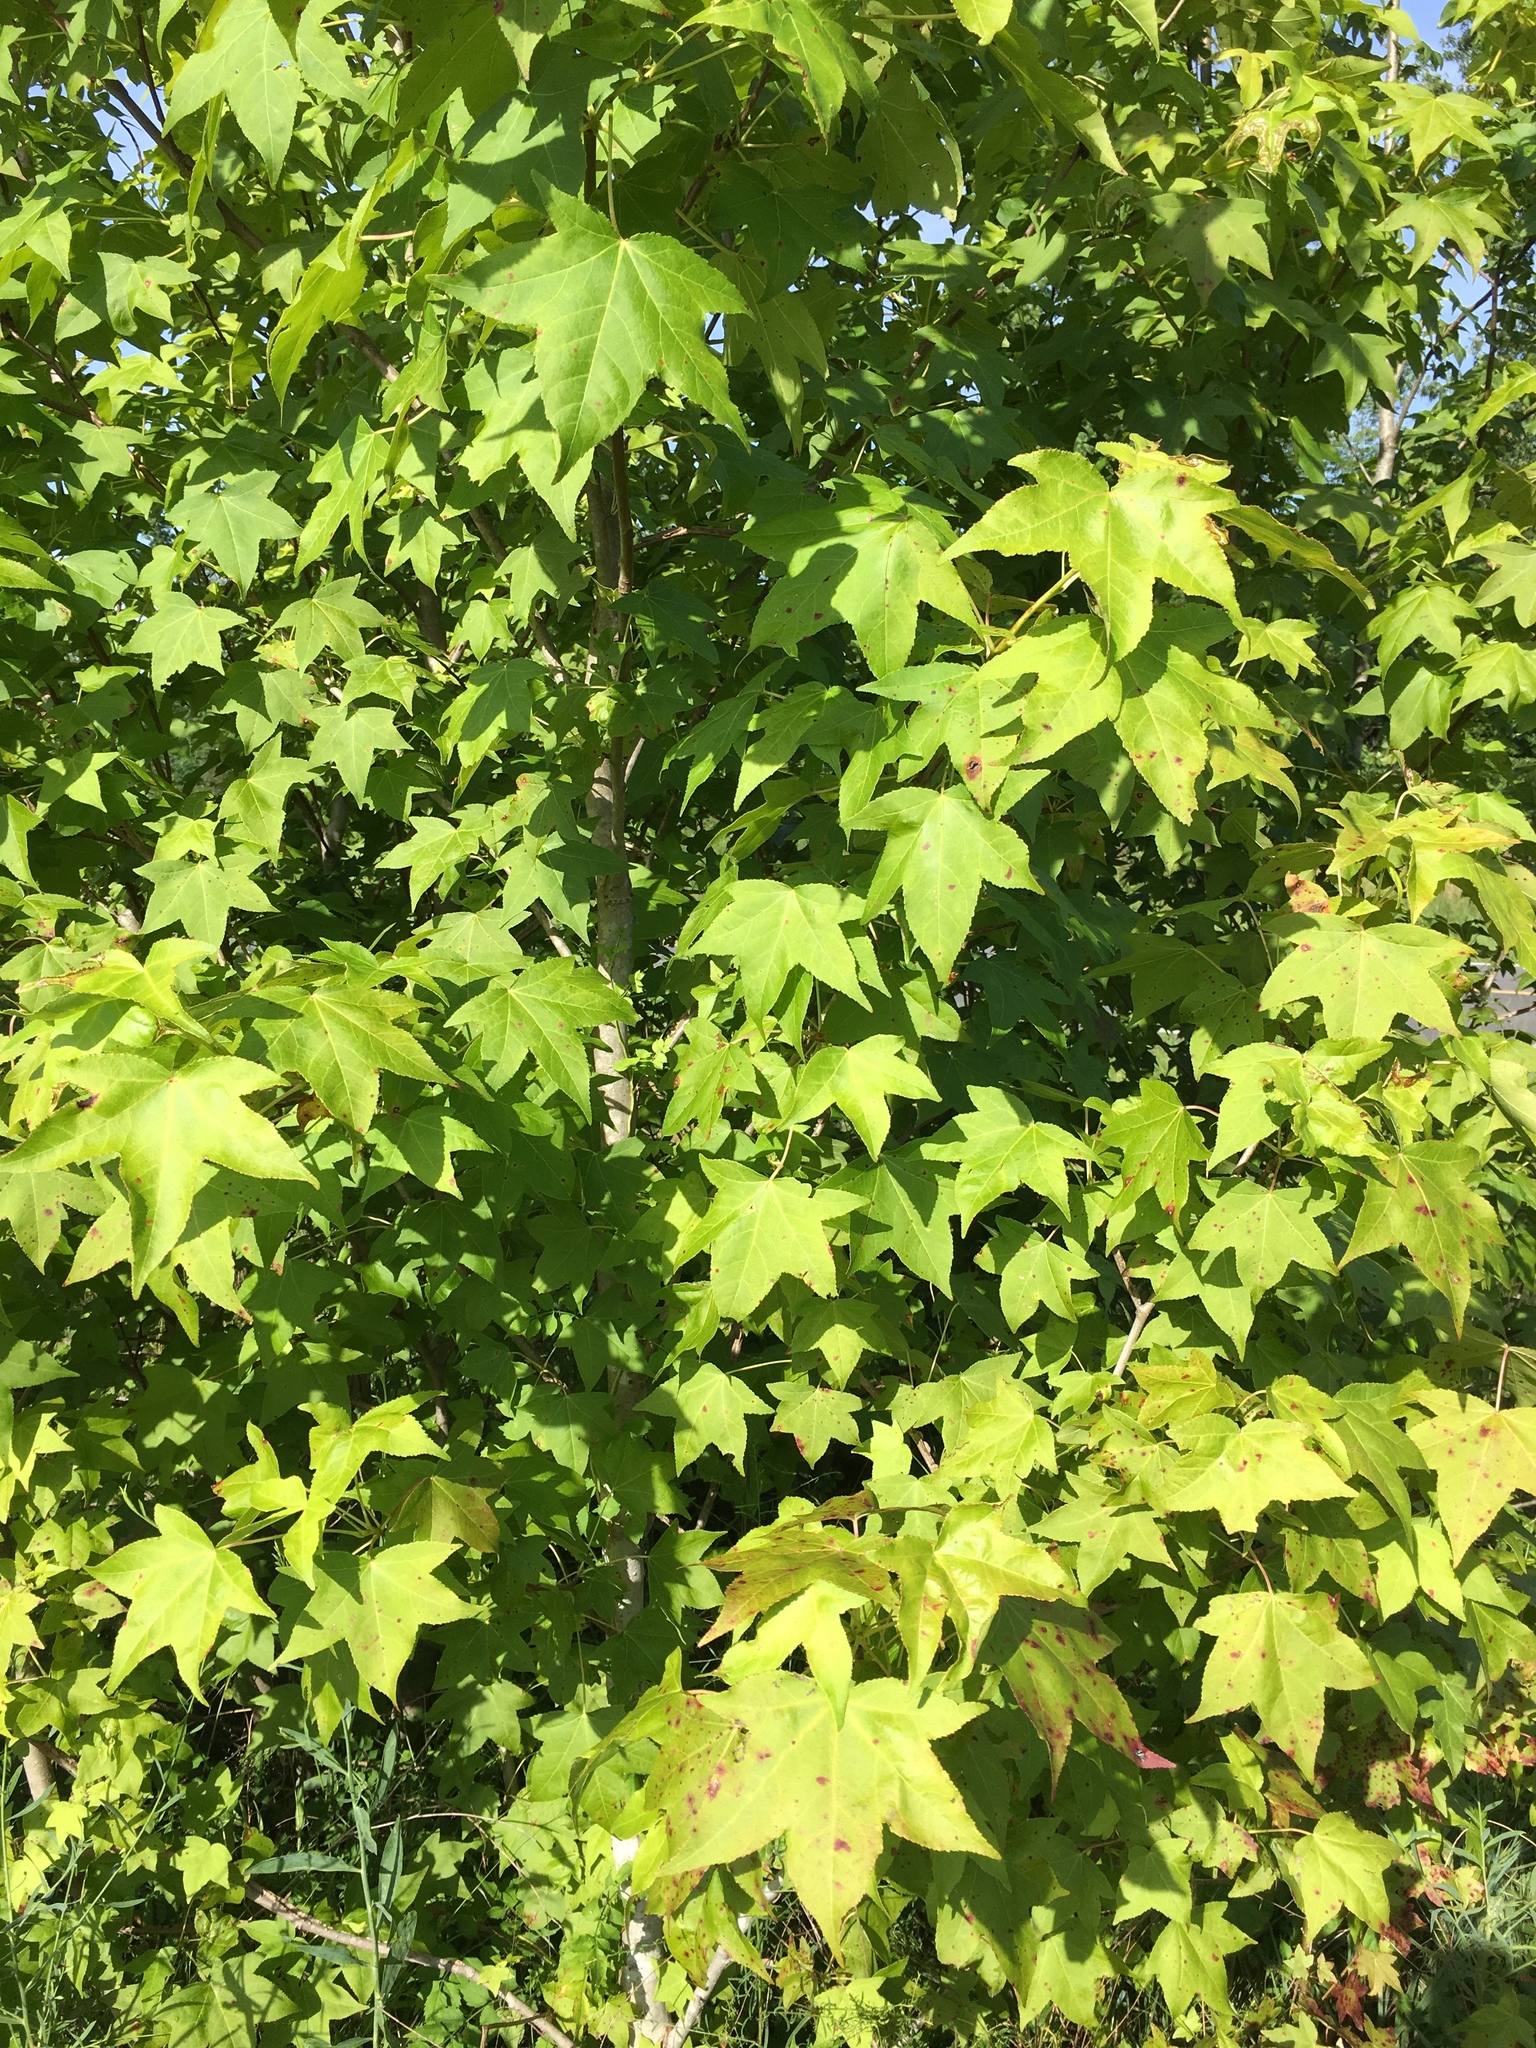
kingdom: Plantae
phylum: Tracheophyta
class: Magnoliopsida
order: Saxifragales
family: Altingiaceae
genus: Liquidambar
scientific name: Liquidambar styraciflua
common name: Sweet gum
